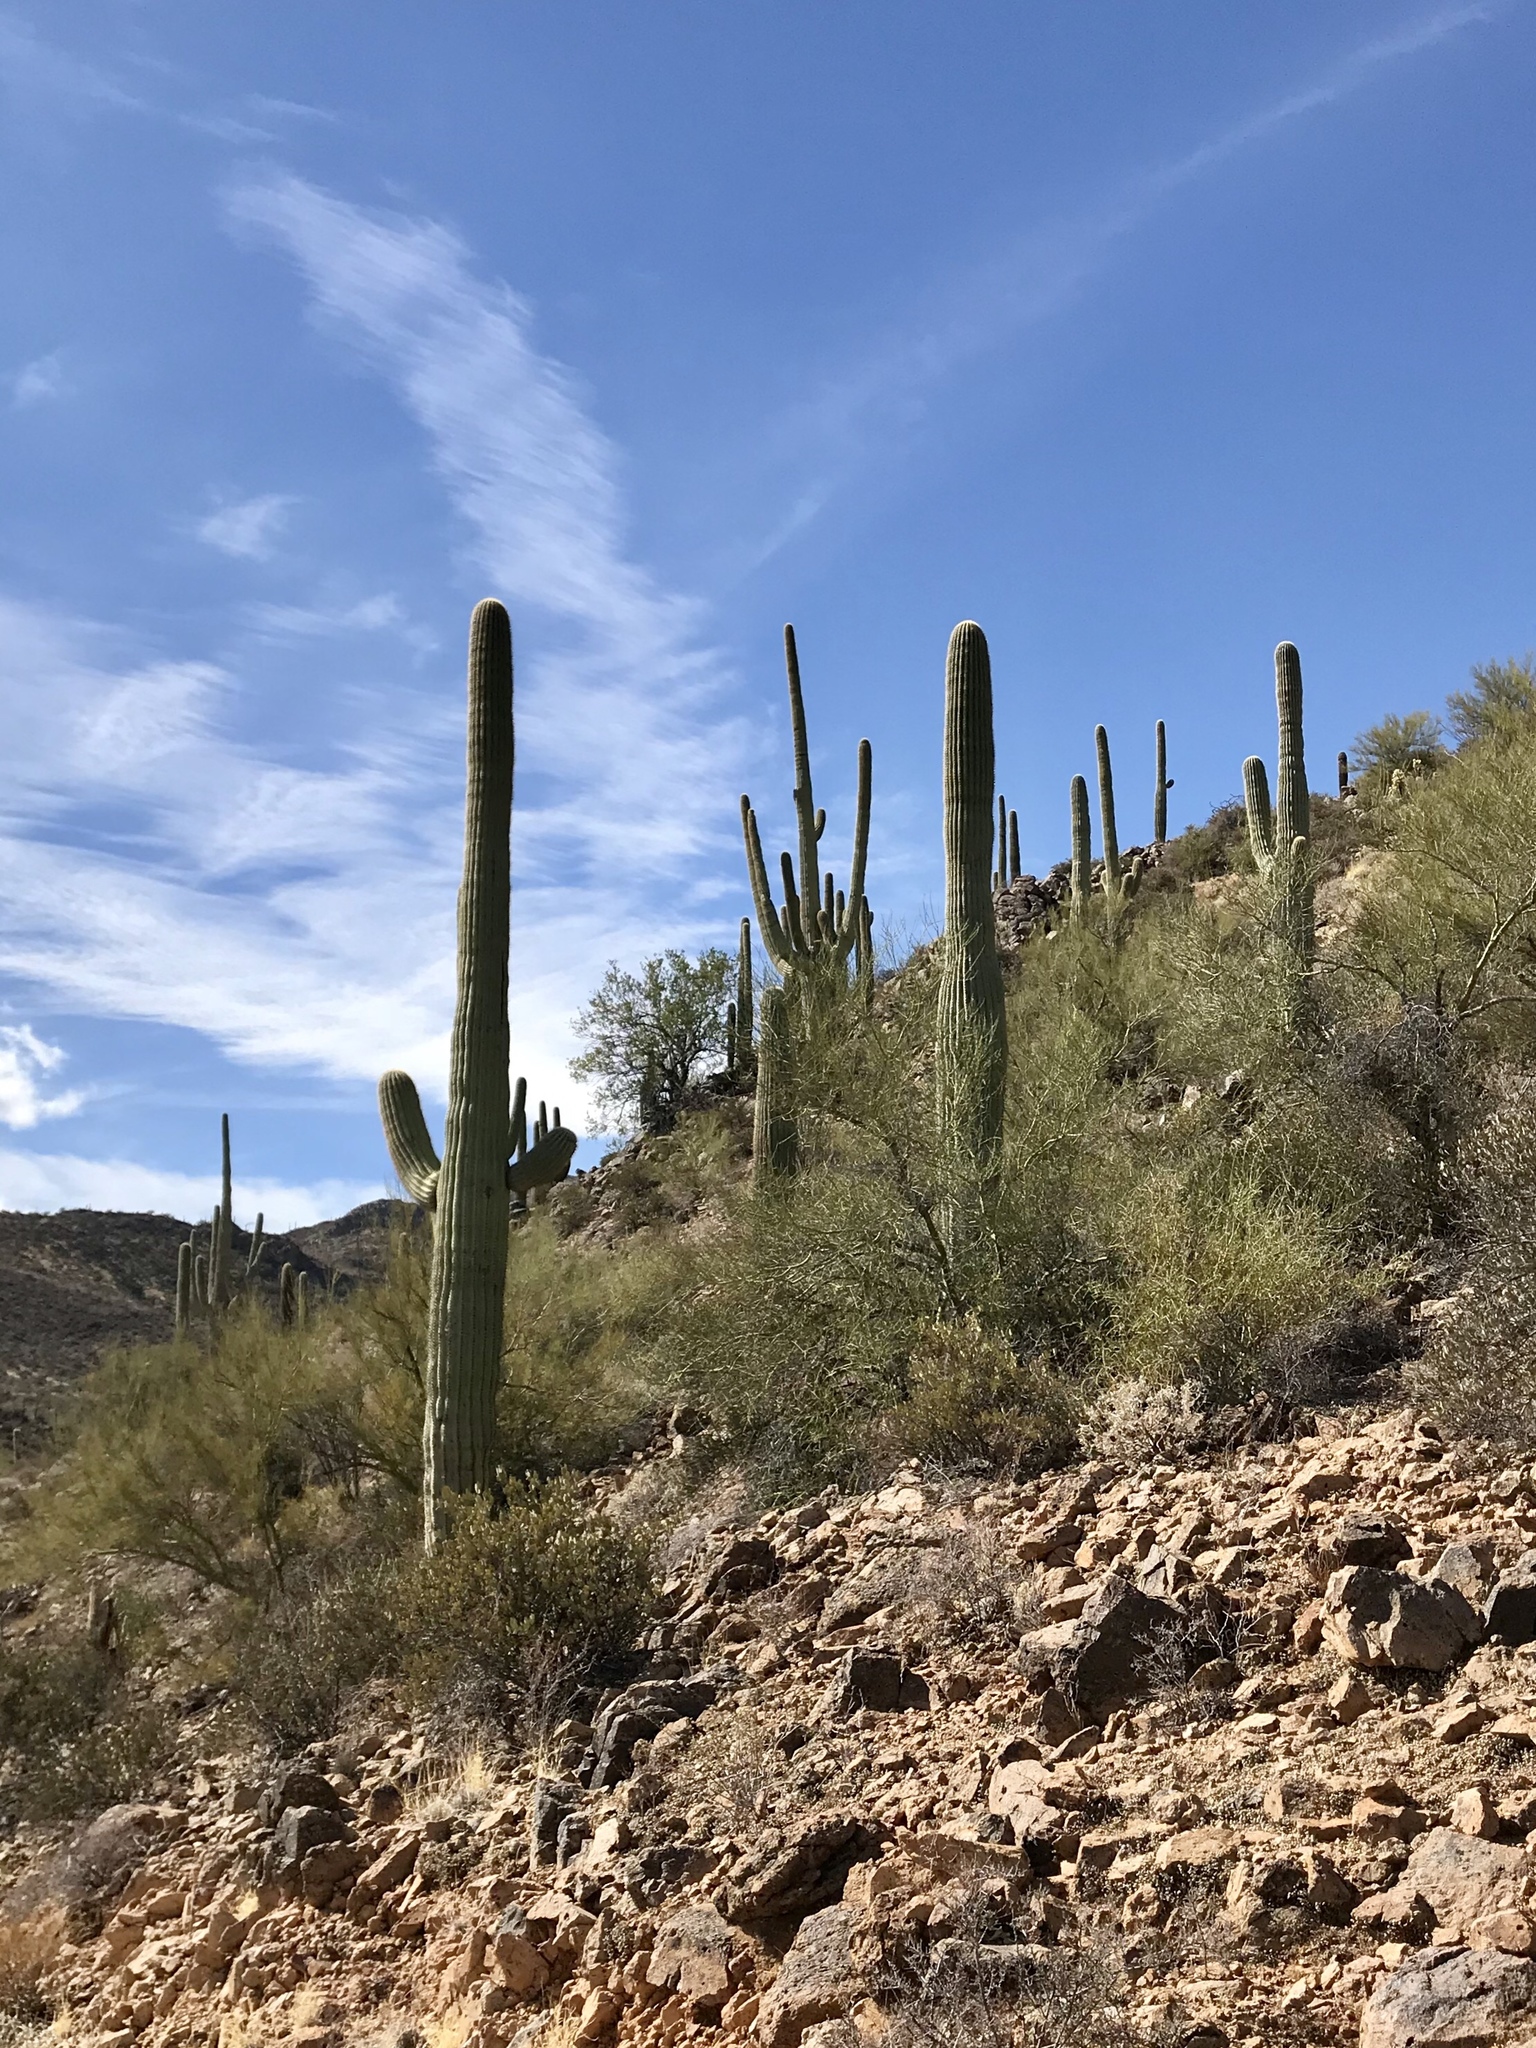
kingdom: Plantae
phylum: Tracheophyta
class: Magnoliopsida
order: Caryophyllales
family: Cactaceae
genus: Carnegiea
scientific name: Carnegiea gigantea
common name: Saguaro
